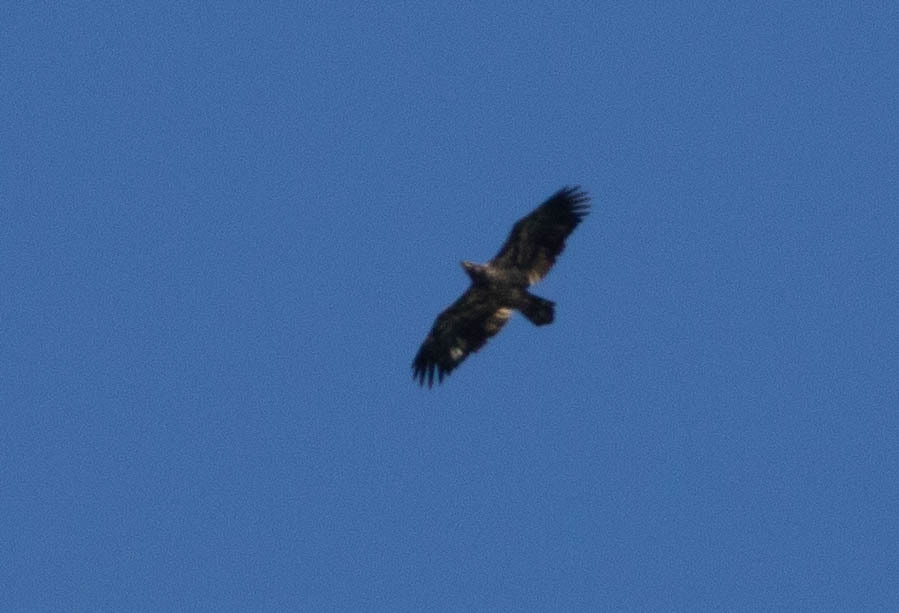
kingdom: Animalia
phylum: Chordata
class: Aves
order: Accipitriformes
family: Accipitridae
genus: Haliaeetus
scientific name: Haliaeetus leucocephalus
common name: Bald eagle
